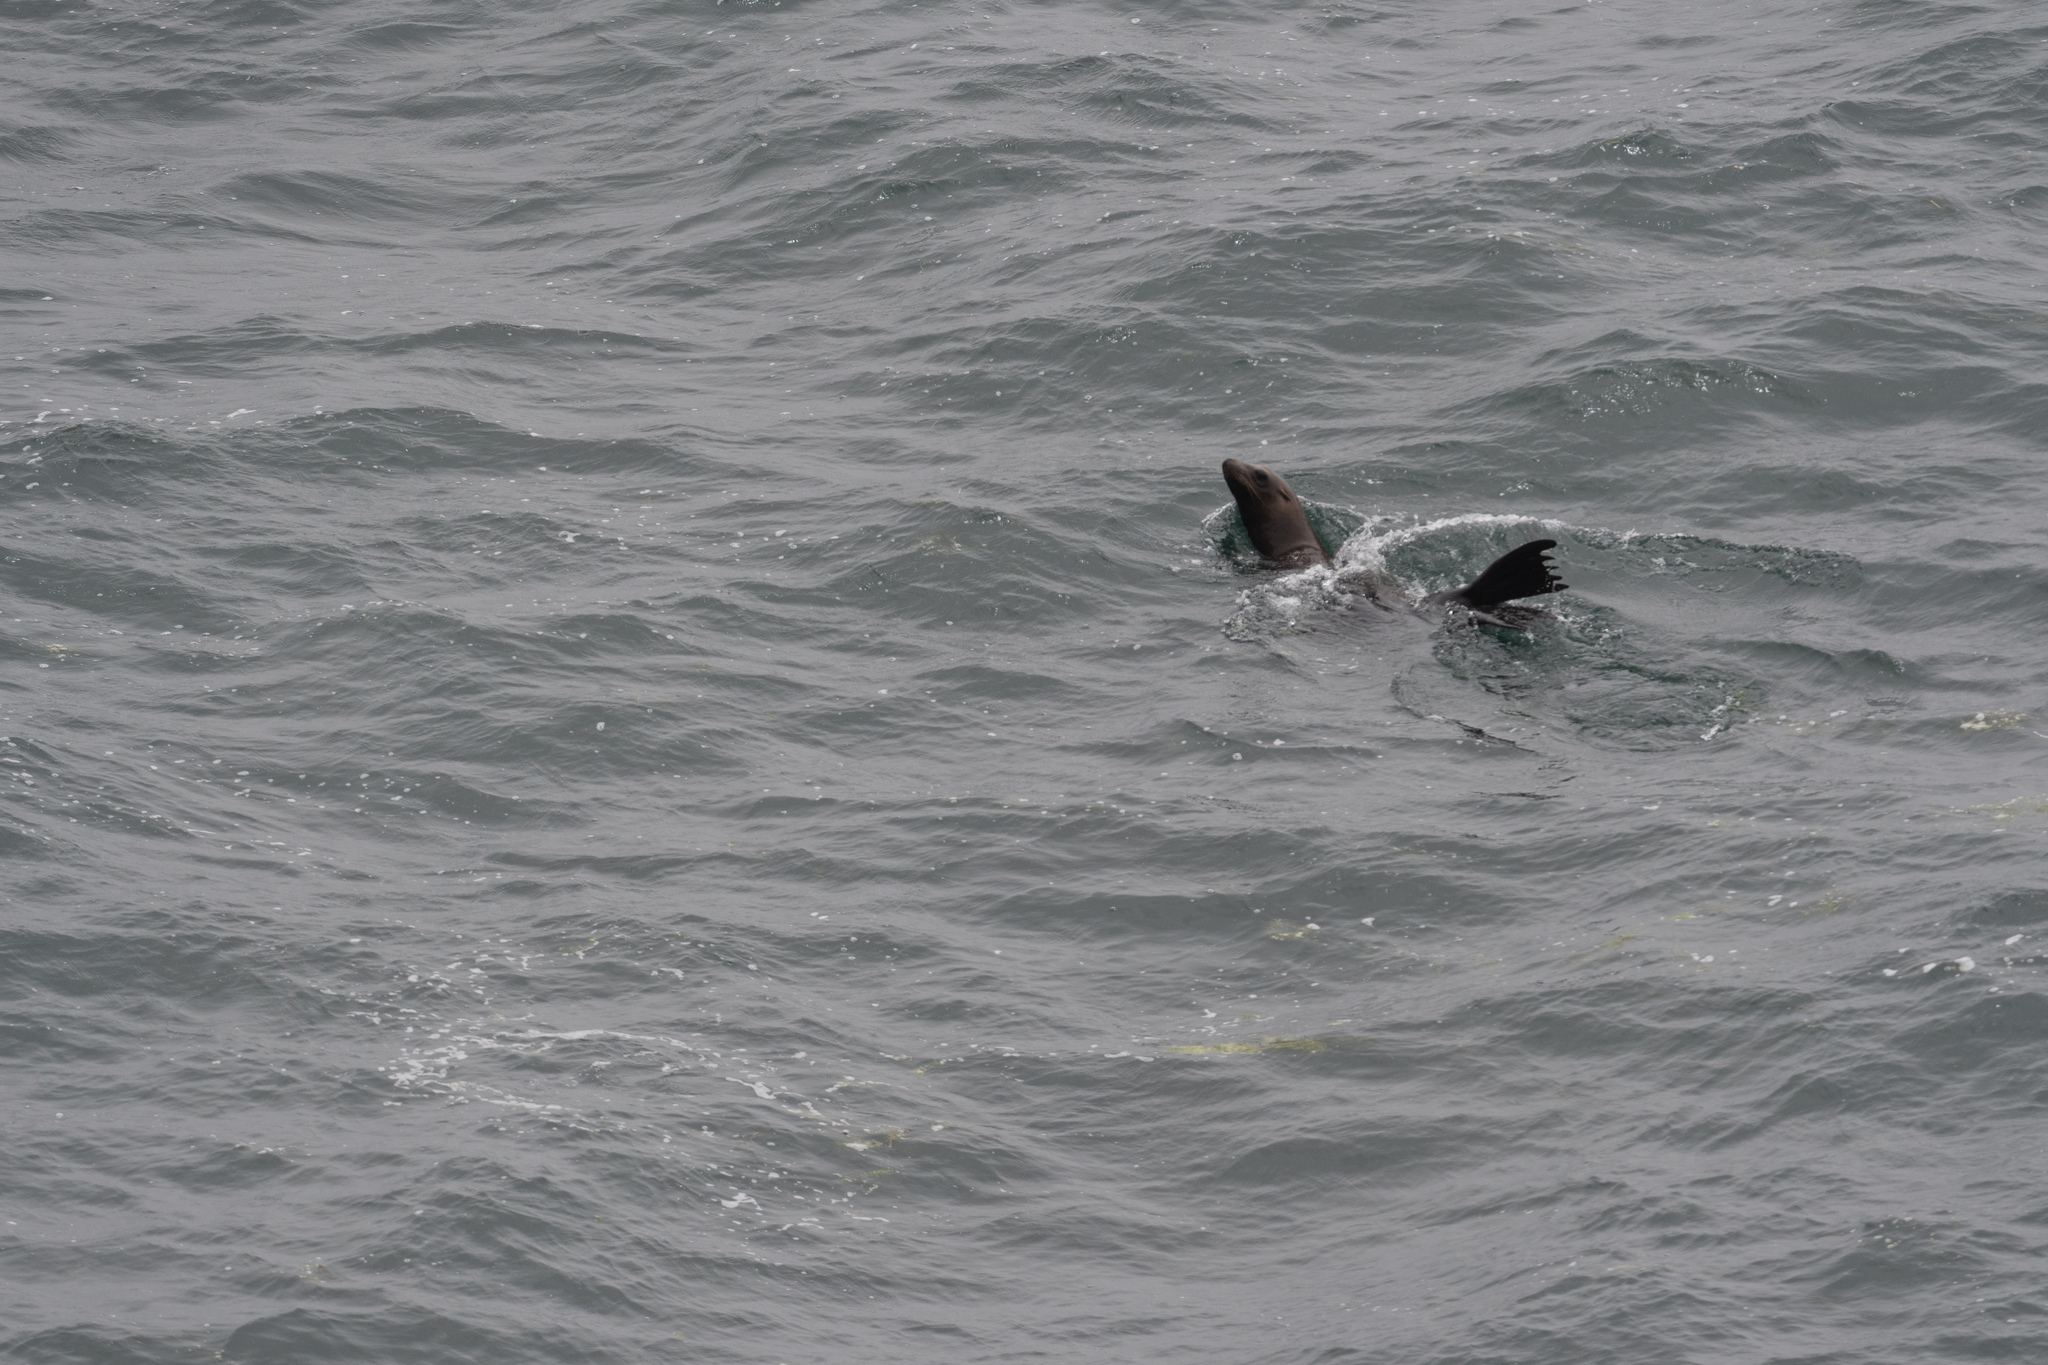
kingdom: Animalia
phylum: Chordata
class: Mammalia
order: Carnivora
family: Otariidae
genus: Zalophus
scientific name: Zalophus californianus
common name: California sea lion
